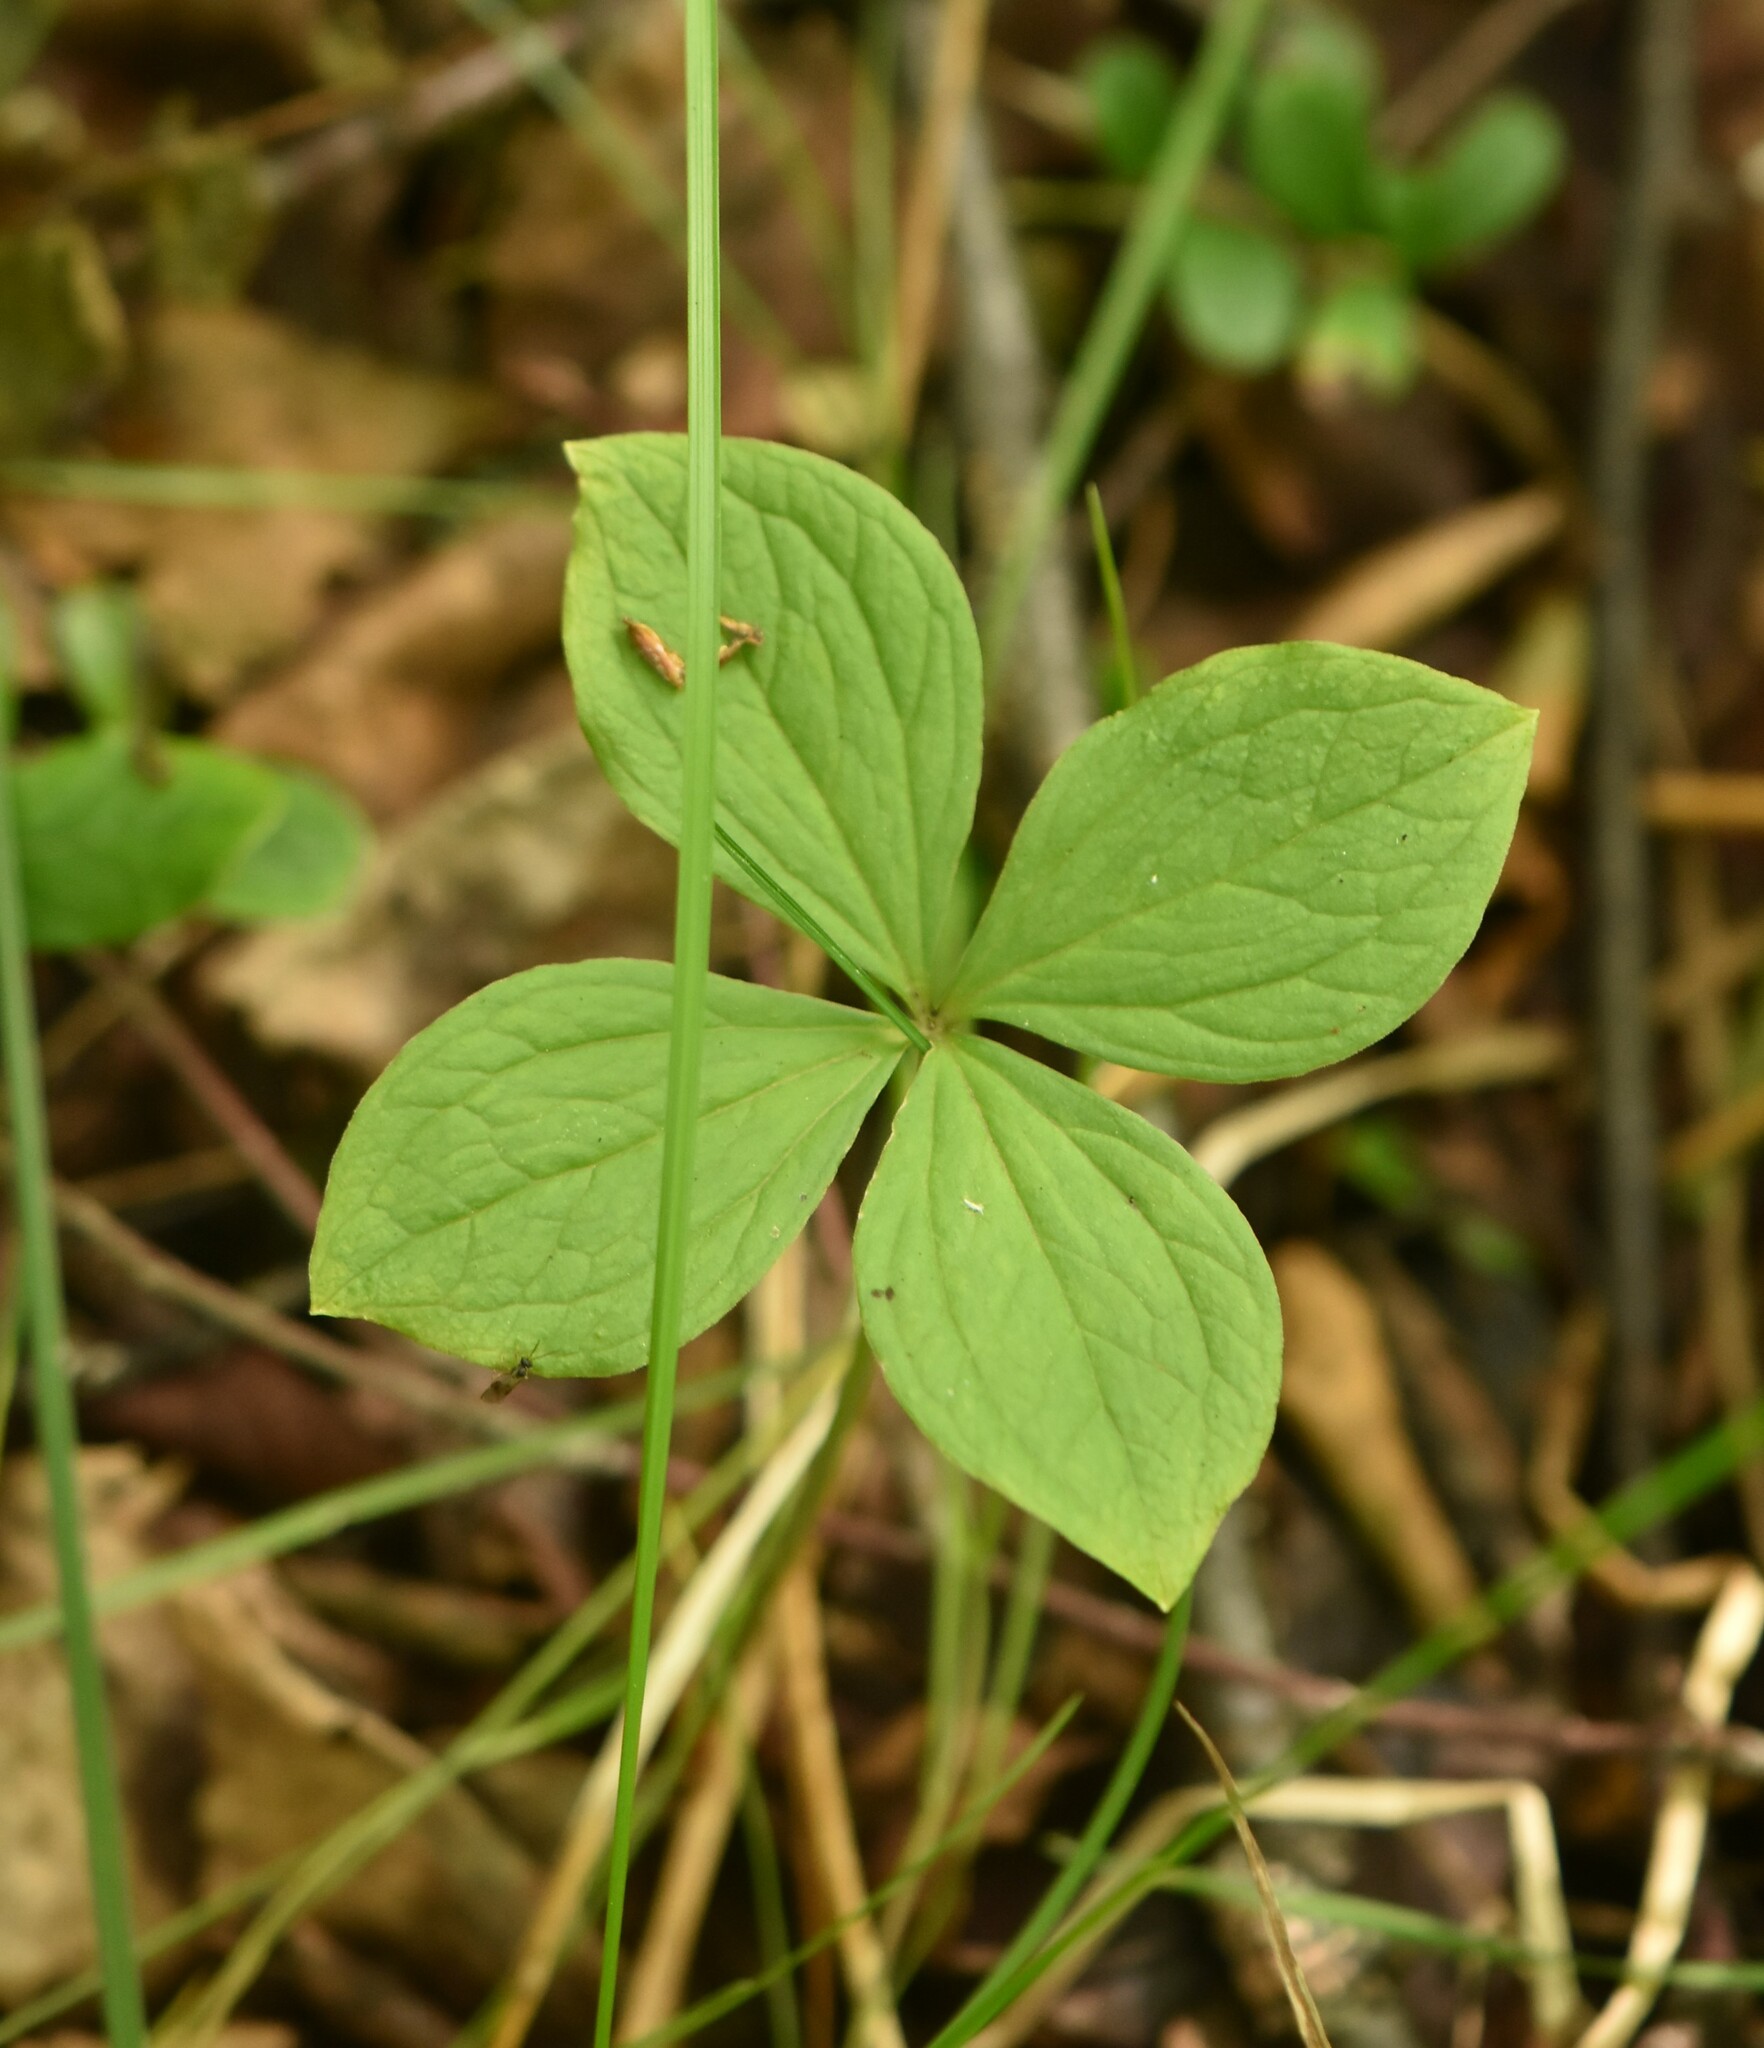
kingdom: Plantae
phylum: Tracheophyta
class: Liliopsida
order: Liliales
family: Melanthiaceae
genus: Paris
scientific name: Paris quadrifolia
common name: Herb-paris
